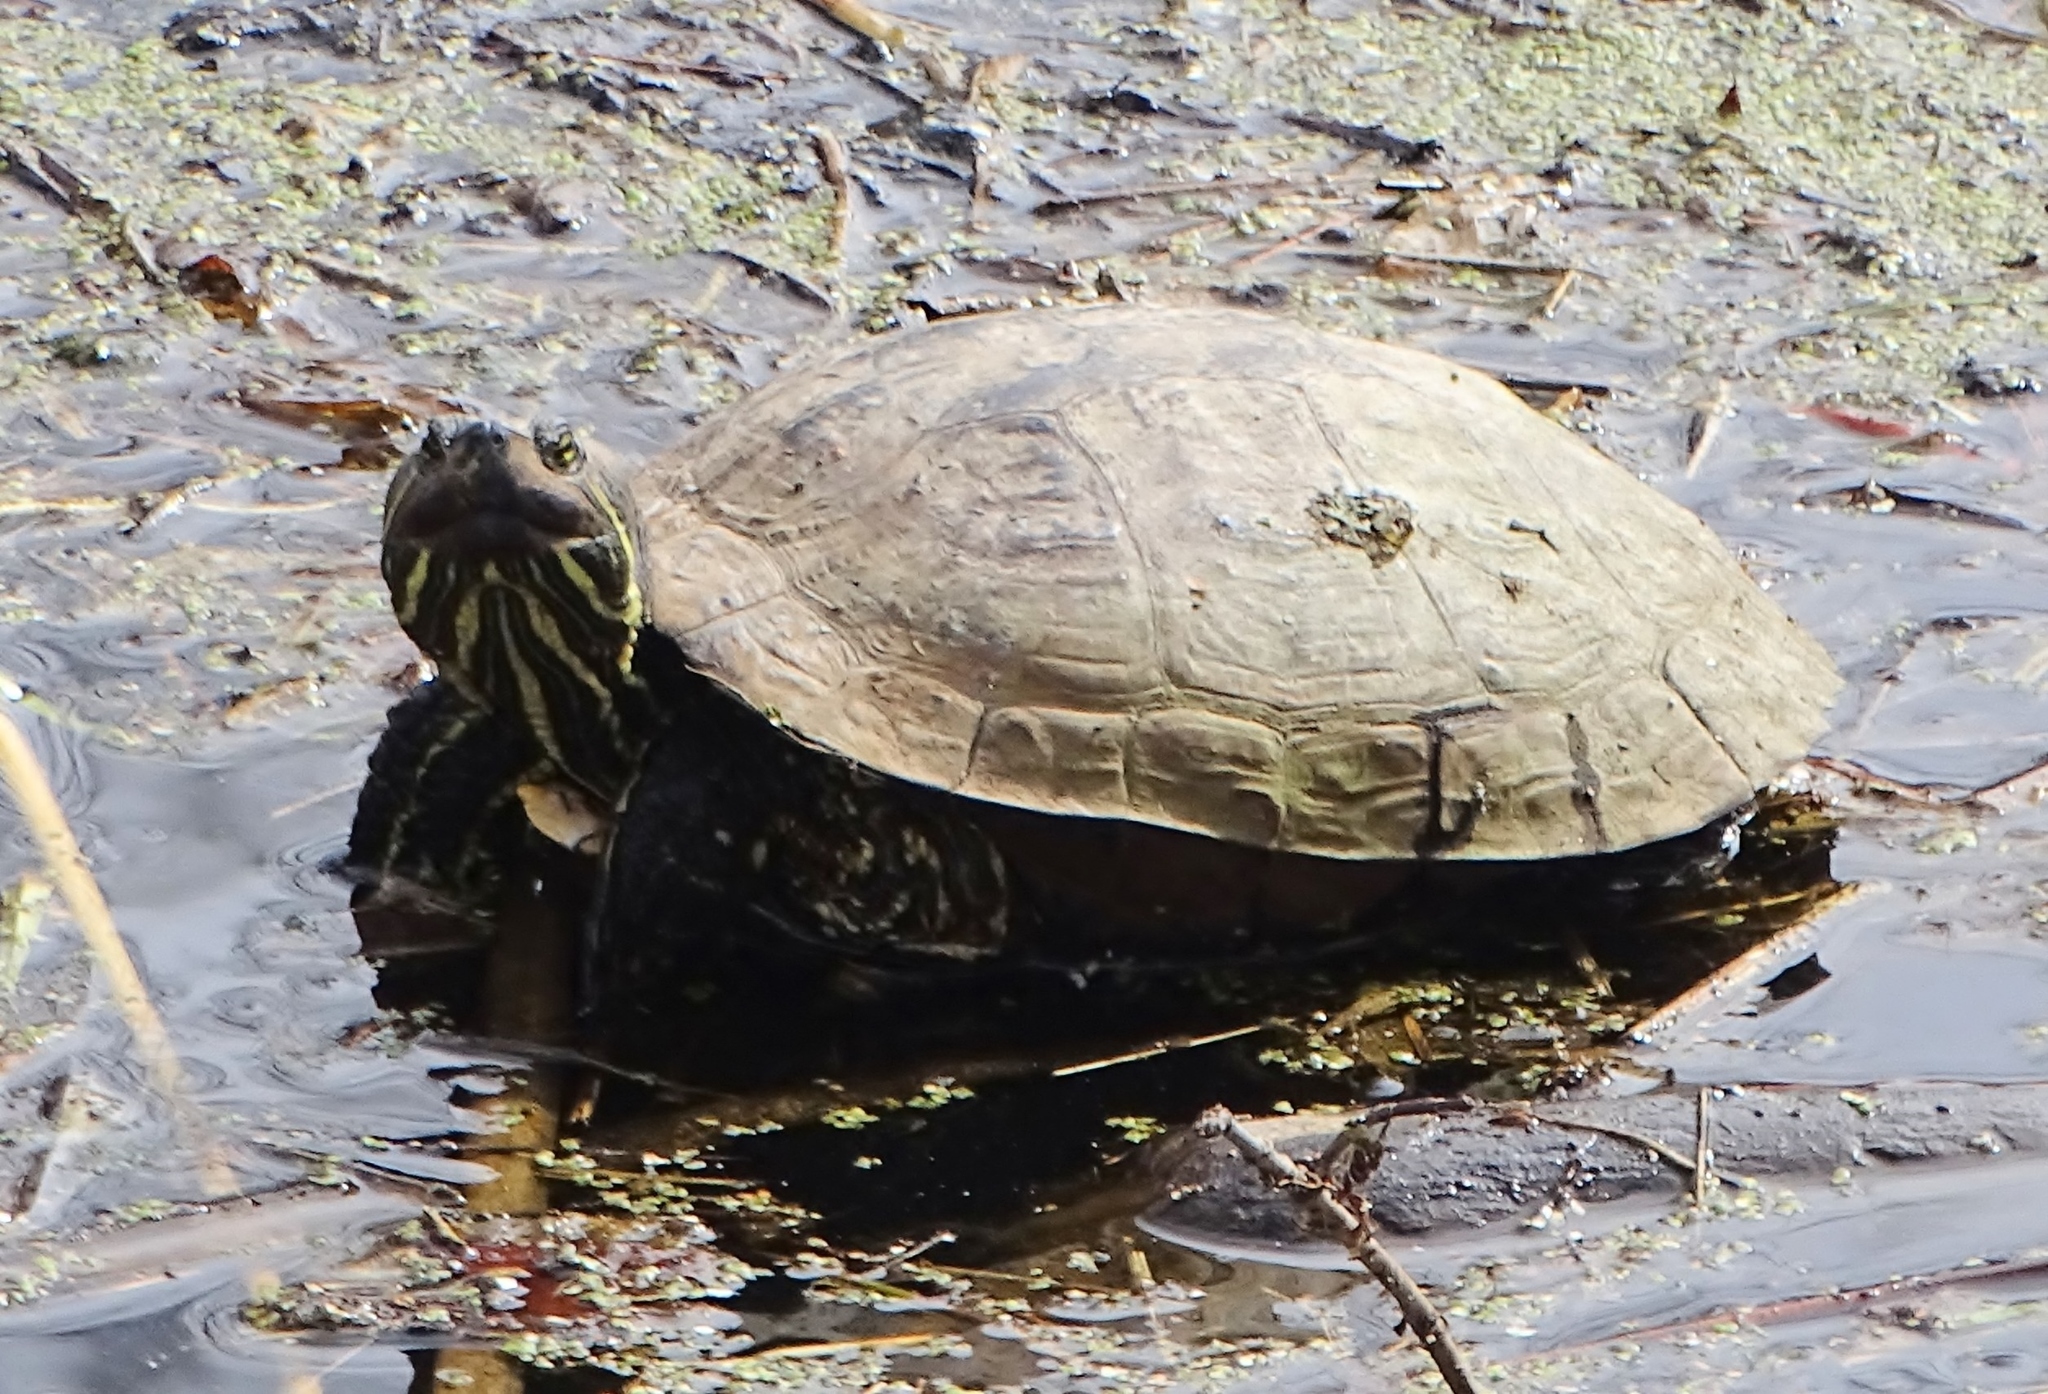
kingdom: Animalia
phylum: Chordata
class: Testudines
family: Emydidae
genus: Trachemys
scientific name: Trachemys scripta
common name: Slider
